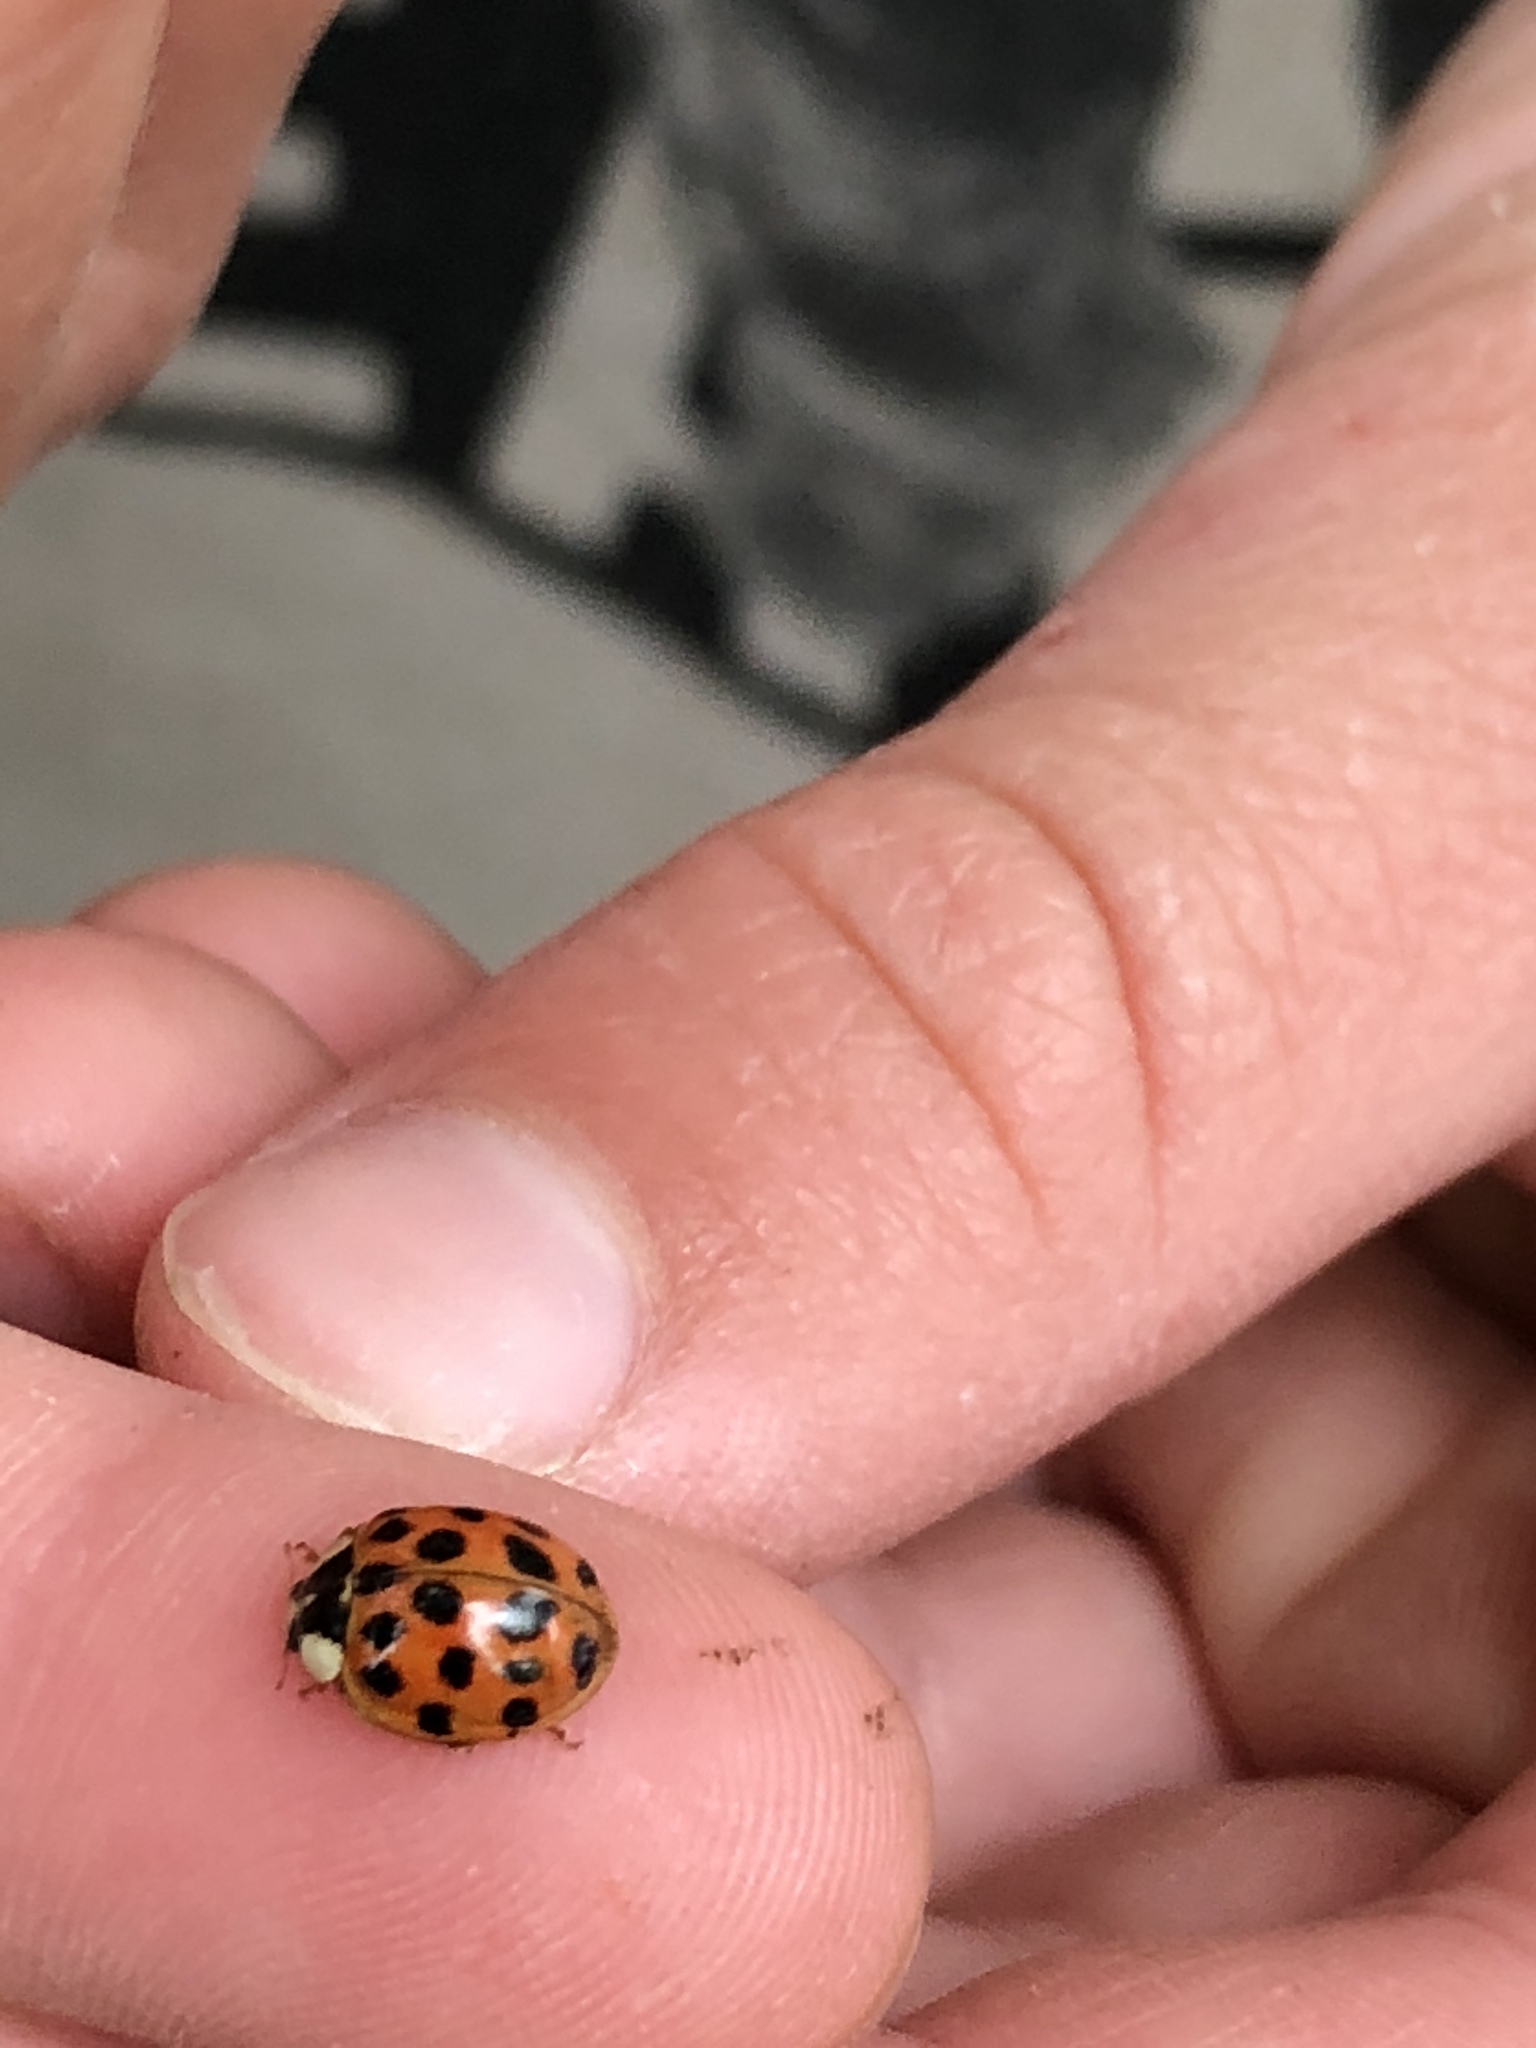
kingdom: Animalia
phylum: Arthropoda
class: Insecta
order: Coleoptera
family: Coccinellidae
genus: Harmonia
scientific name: Harmonia axyridis
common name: Harlequin ladybird
